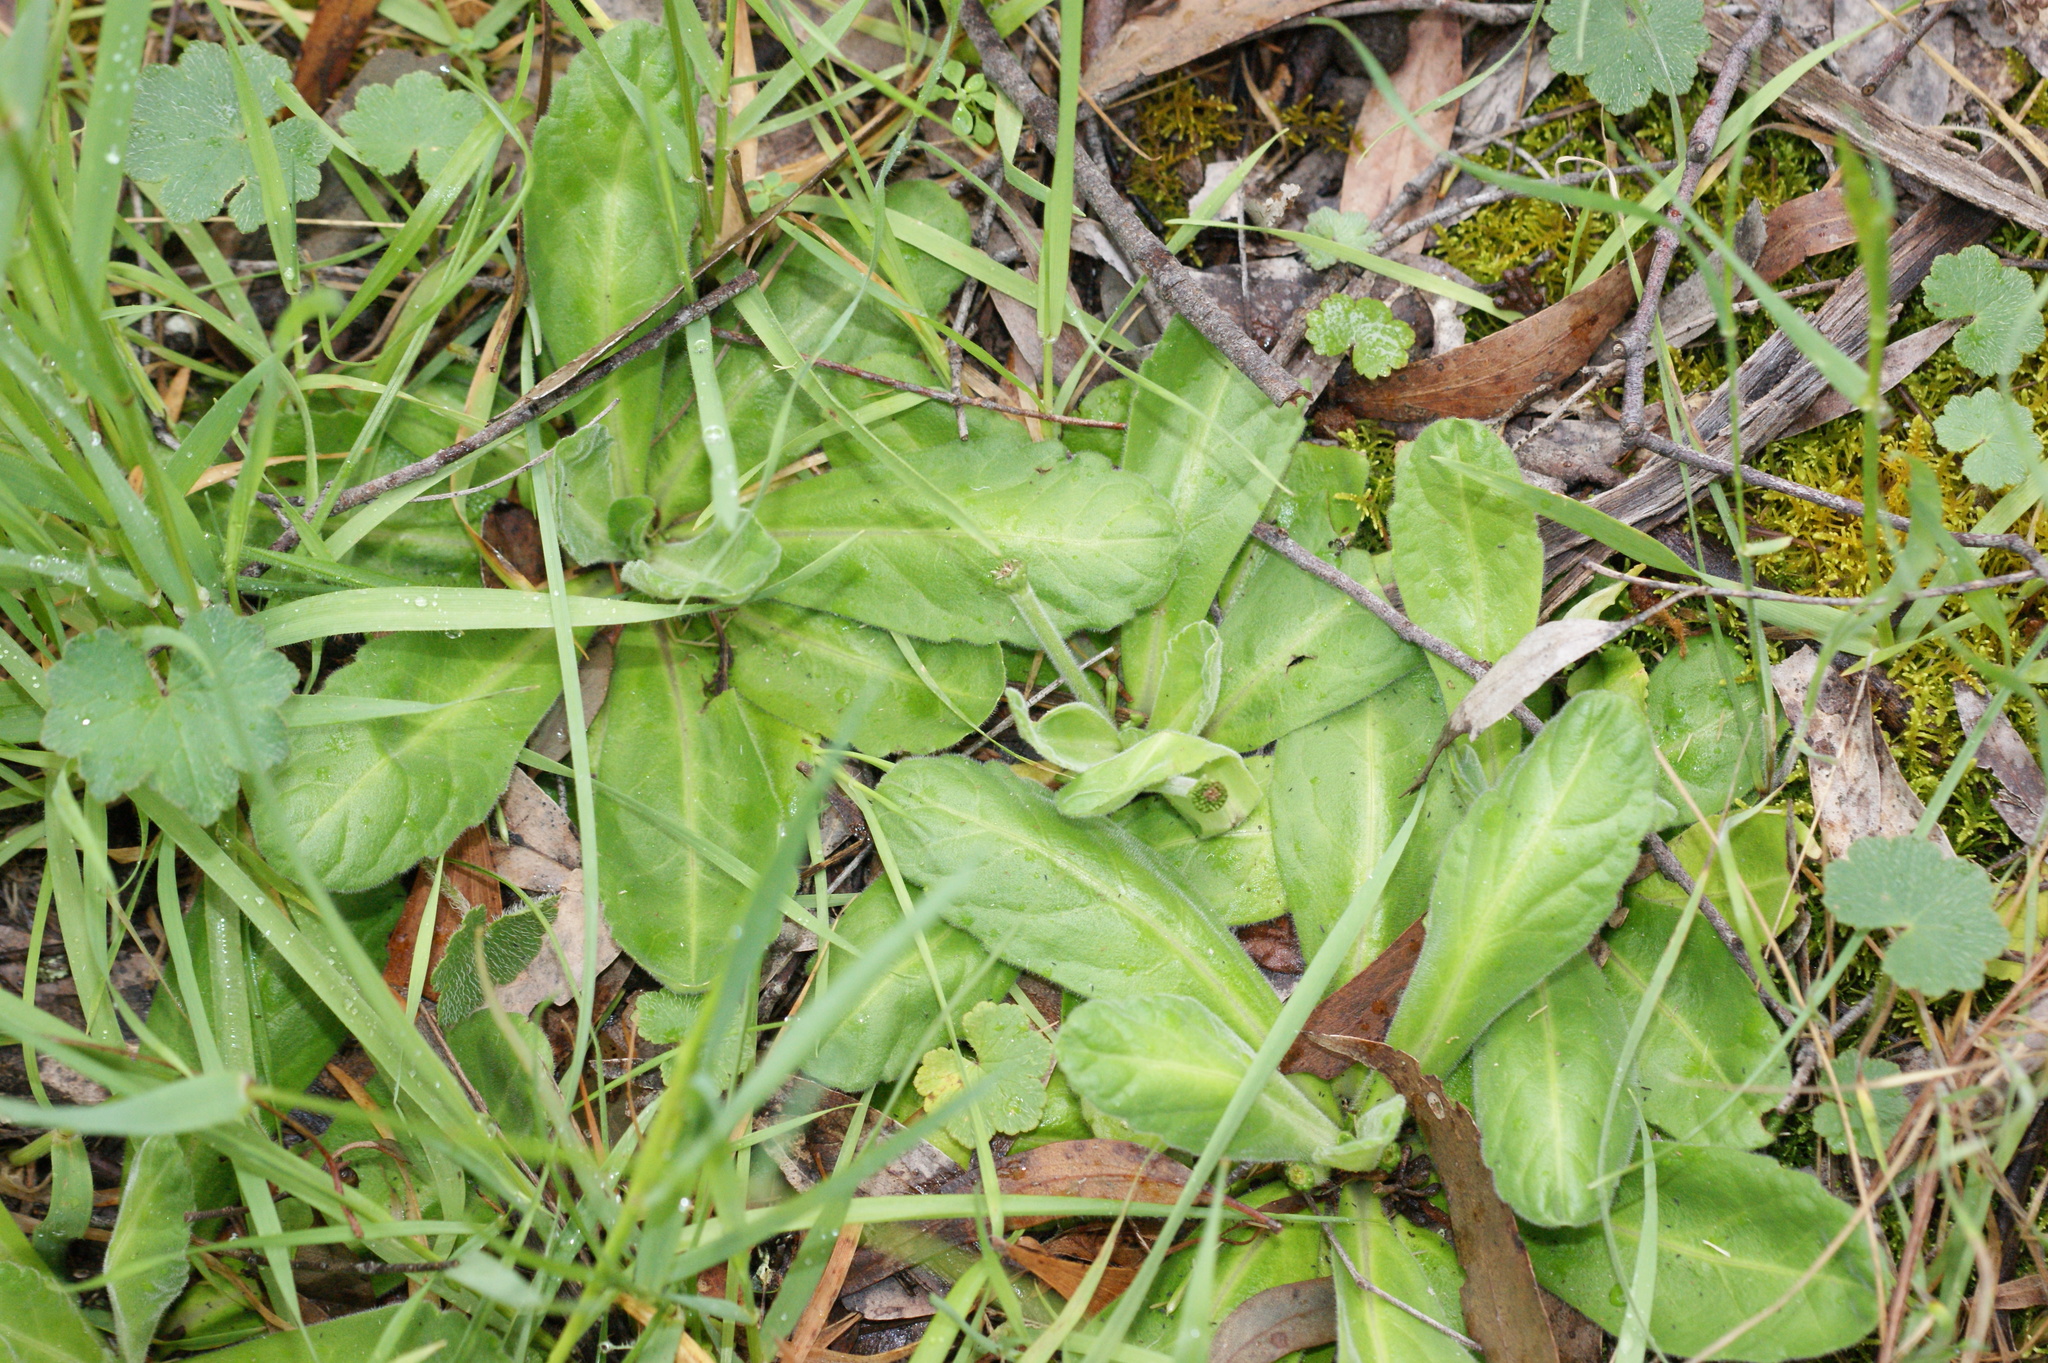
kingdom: Plantae
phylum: Tracheophyta
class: Magnoliopsida
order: Asterales
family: Asteraceae
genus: Solenogyne
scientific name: Solenogyne gunnii
